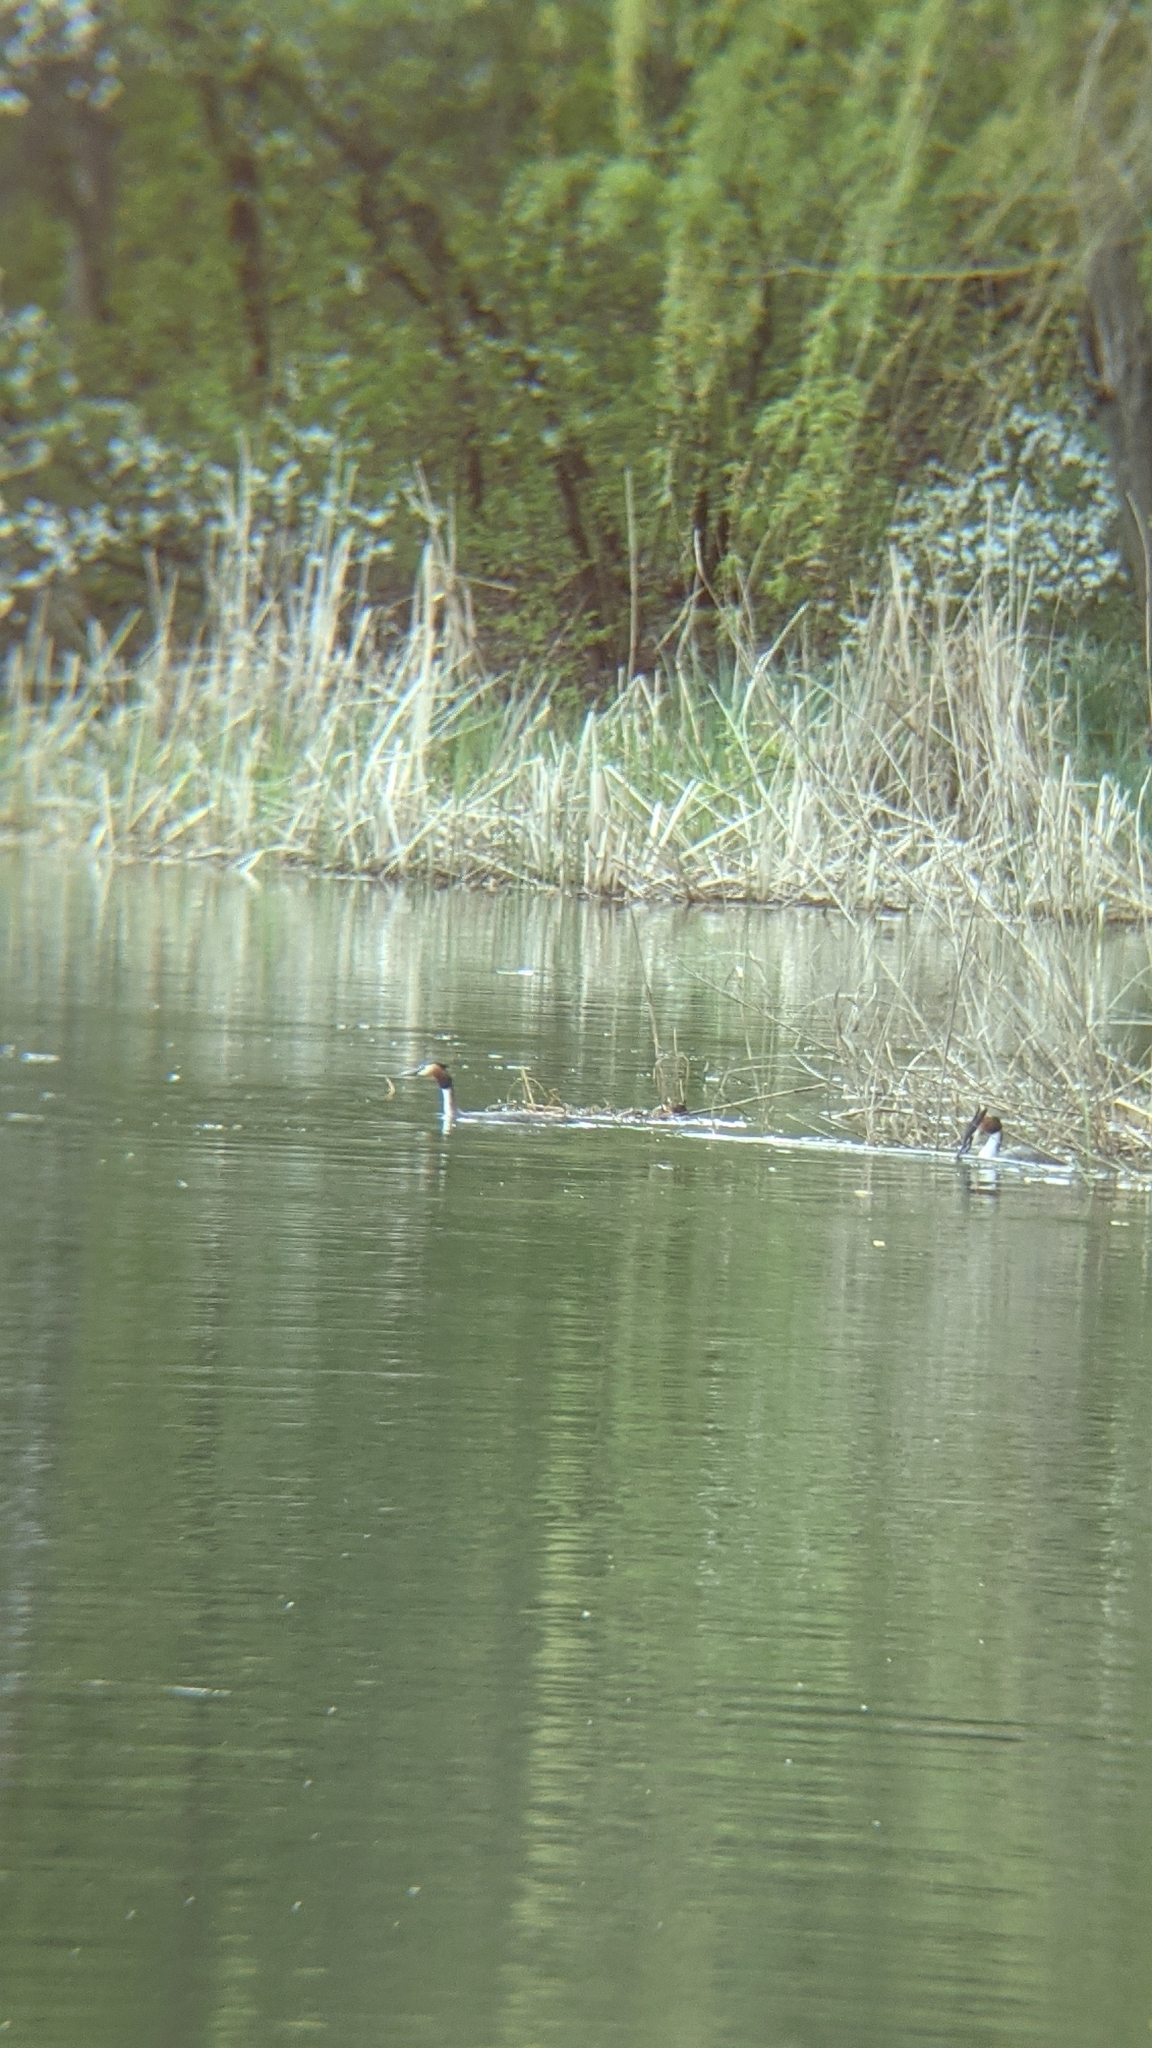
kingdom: Animalia
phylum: Chordata
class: Aves
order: Podicipediformes
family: Podicipedidae
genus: Podiceps
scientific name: Podiceps cristatus
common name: Great crested grebe
